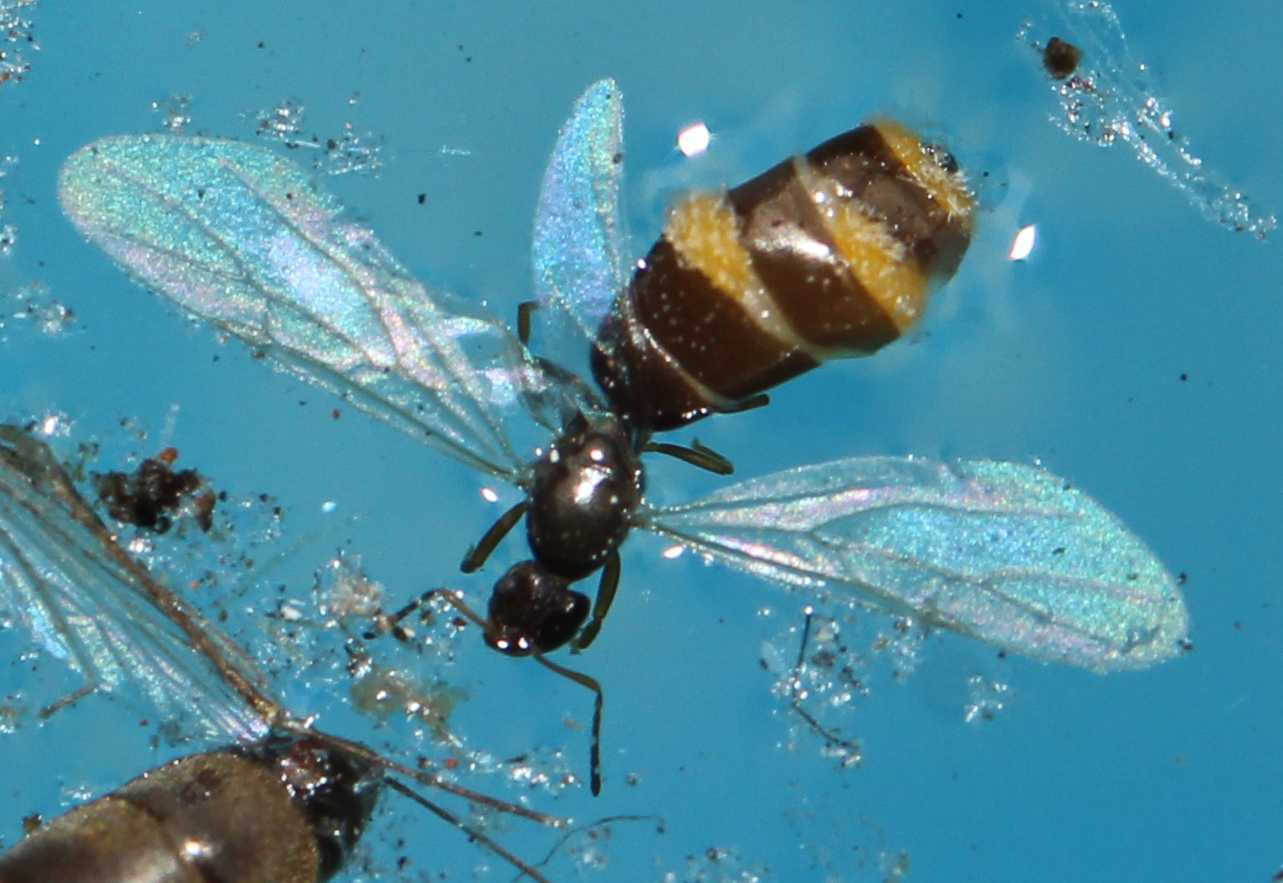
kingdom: Animalia
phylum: Arthropoda
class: Insecta
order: Hymenoptera
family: Formicidae
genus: Brachymyrmex
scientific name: Brachymyrmex patagonicus
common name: Dark rover ant
